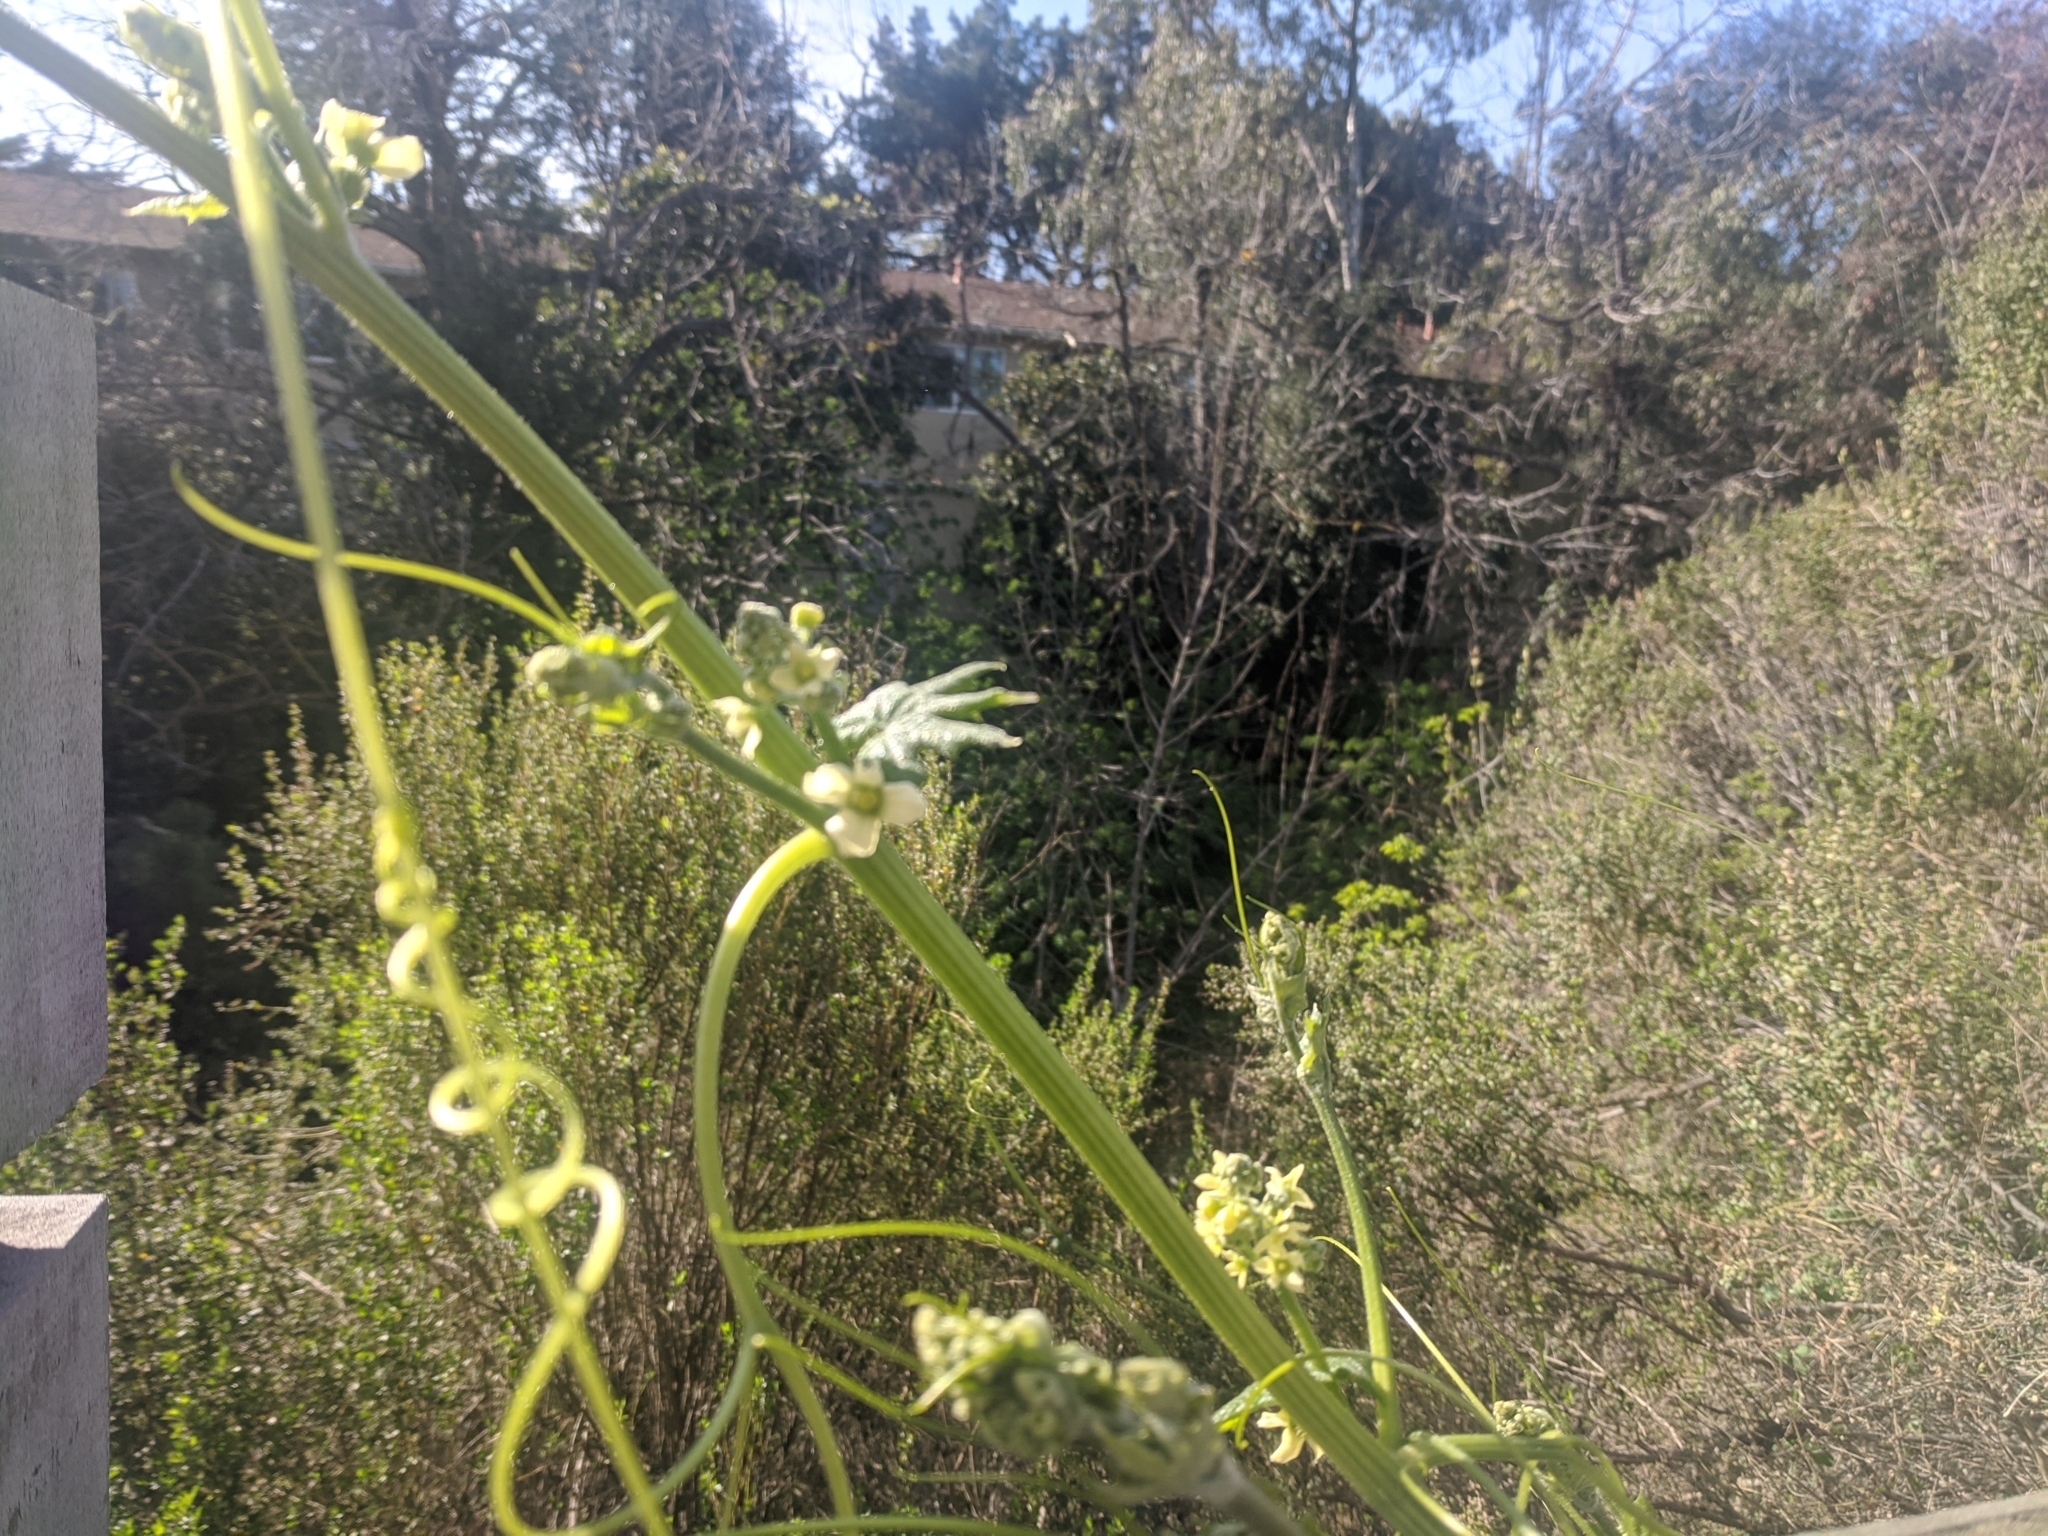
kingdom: Plantae
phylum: Tracheophyta
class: Magnoliopsida
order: Cucurbitales
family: Cucurbitaceae
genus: Marah
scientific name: Marah fabacea
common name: California manroot
